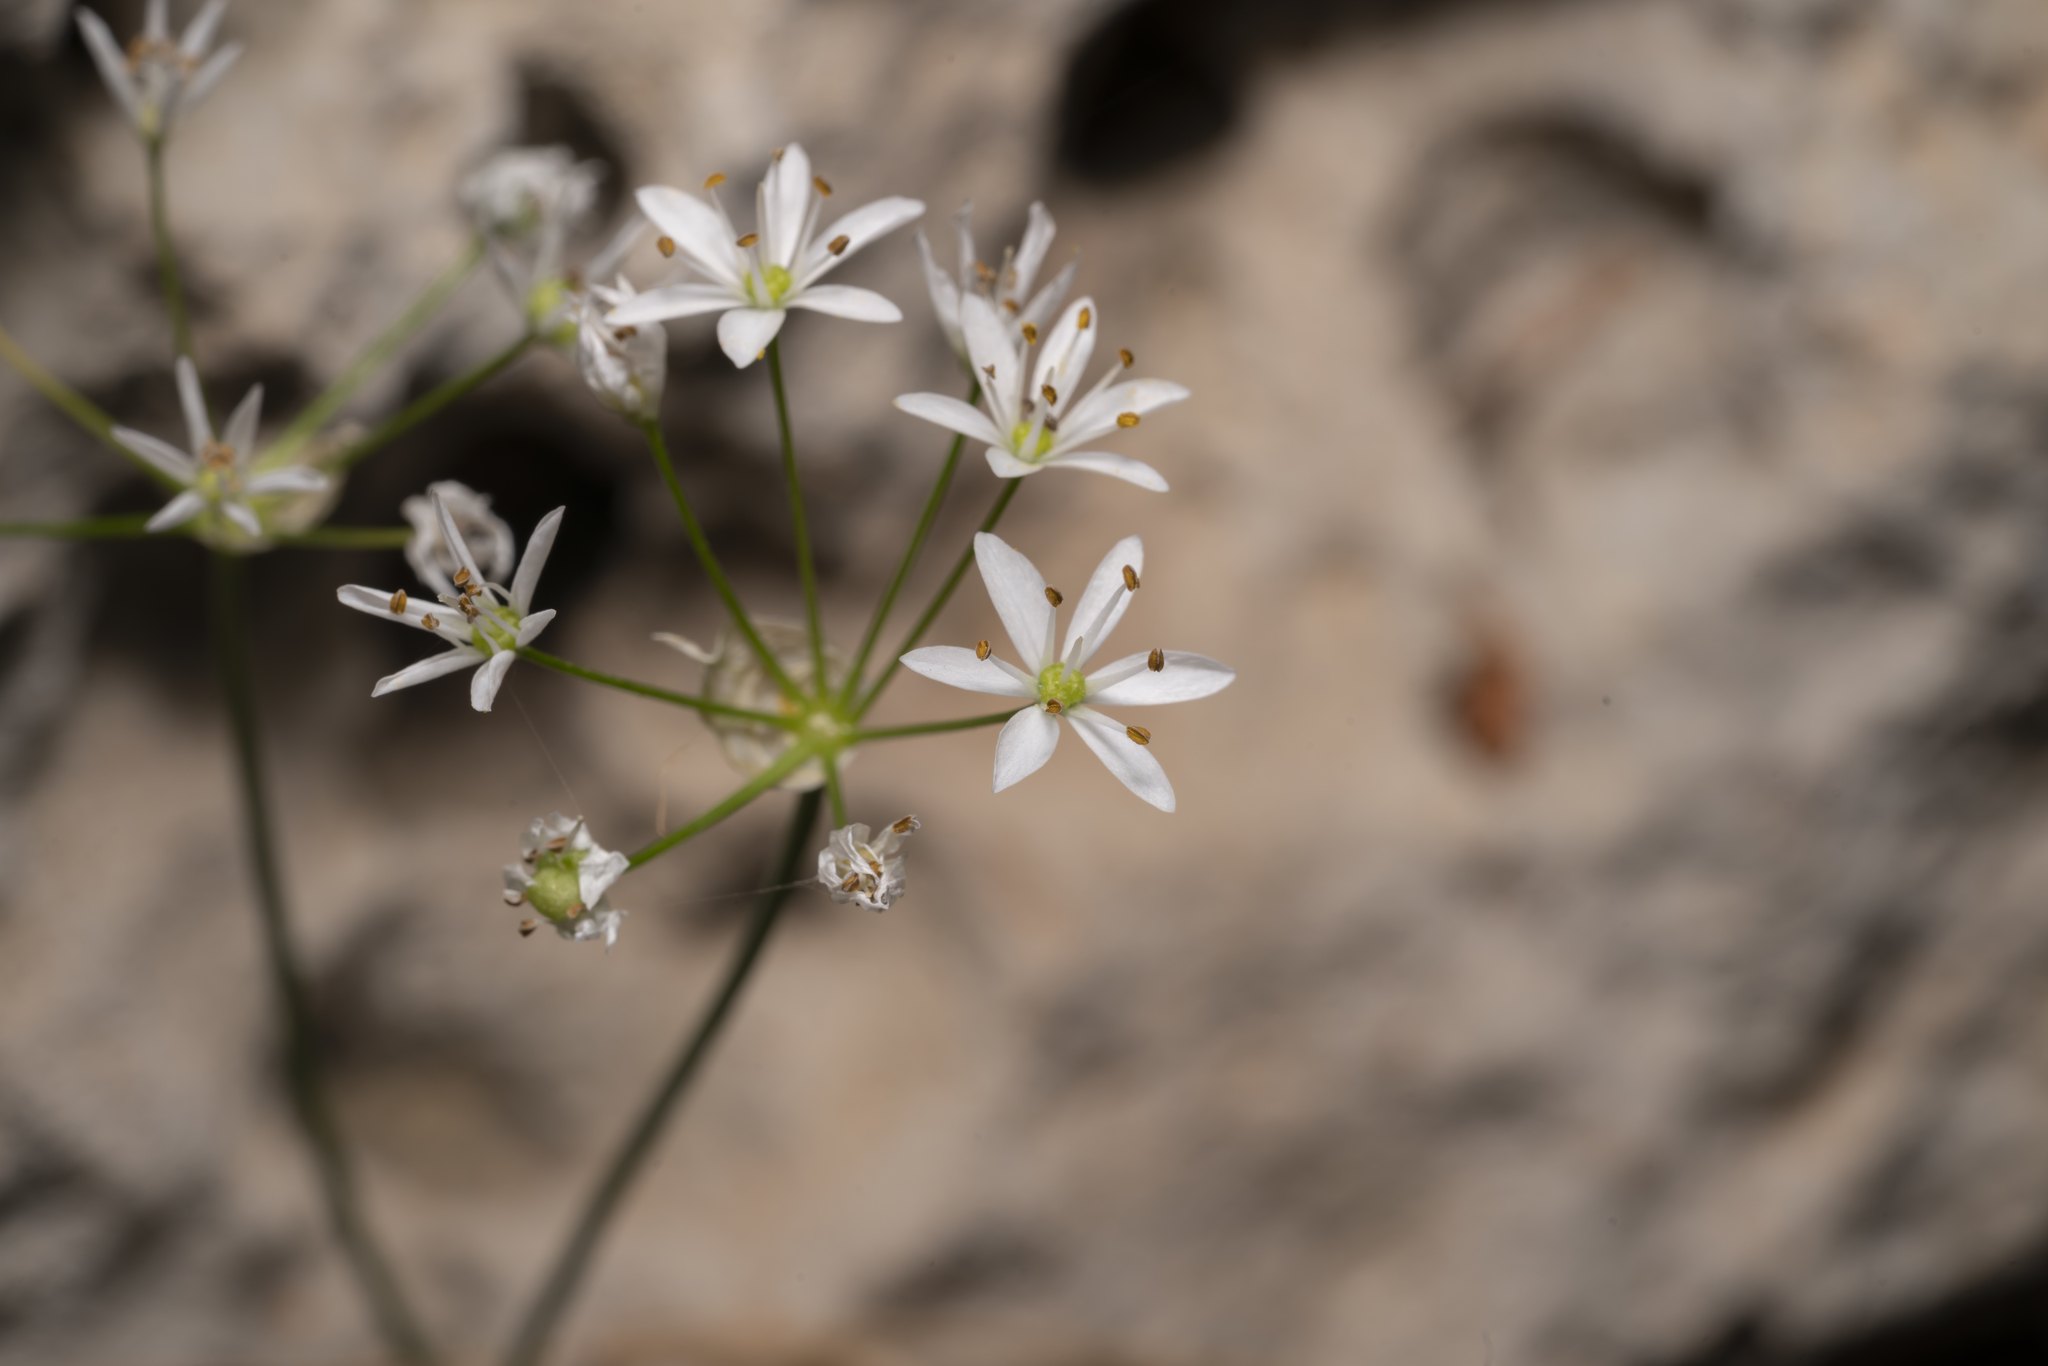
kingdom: Plantae
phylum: Tracheophyta
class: Liliopsida
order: Asparagales
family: Amaryllidaceae
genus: Allium
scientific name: Allium subhirsutum
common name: Hairy garlic
